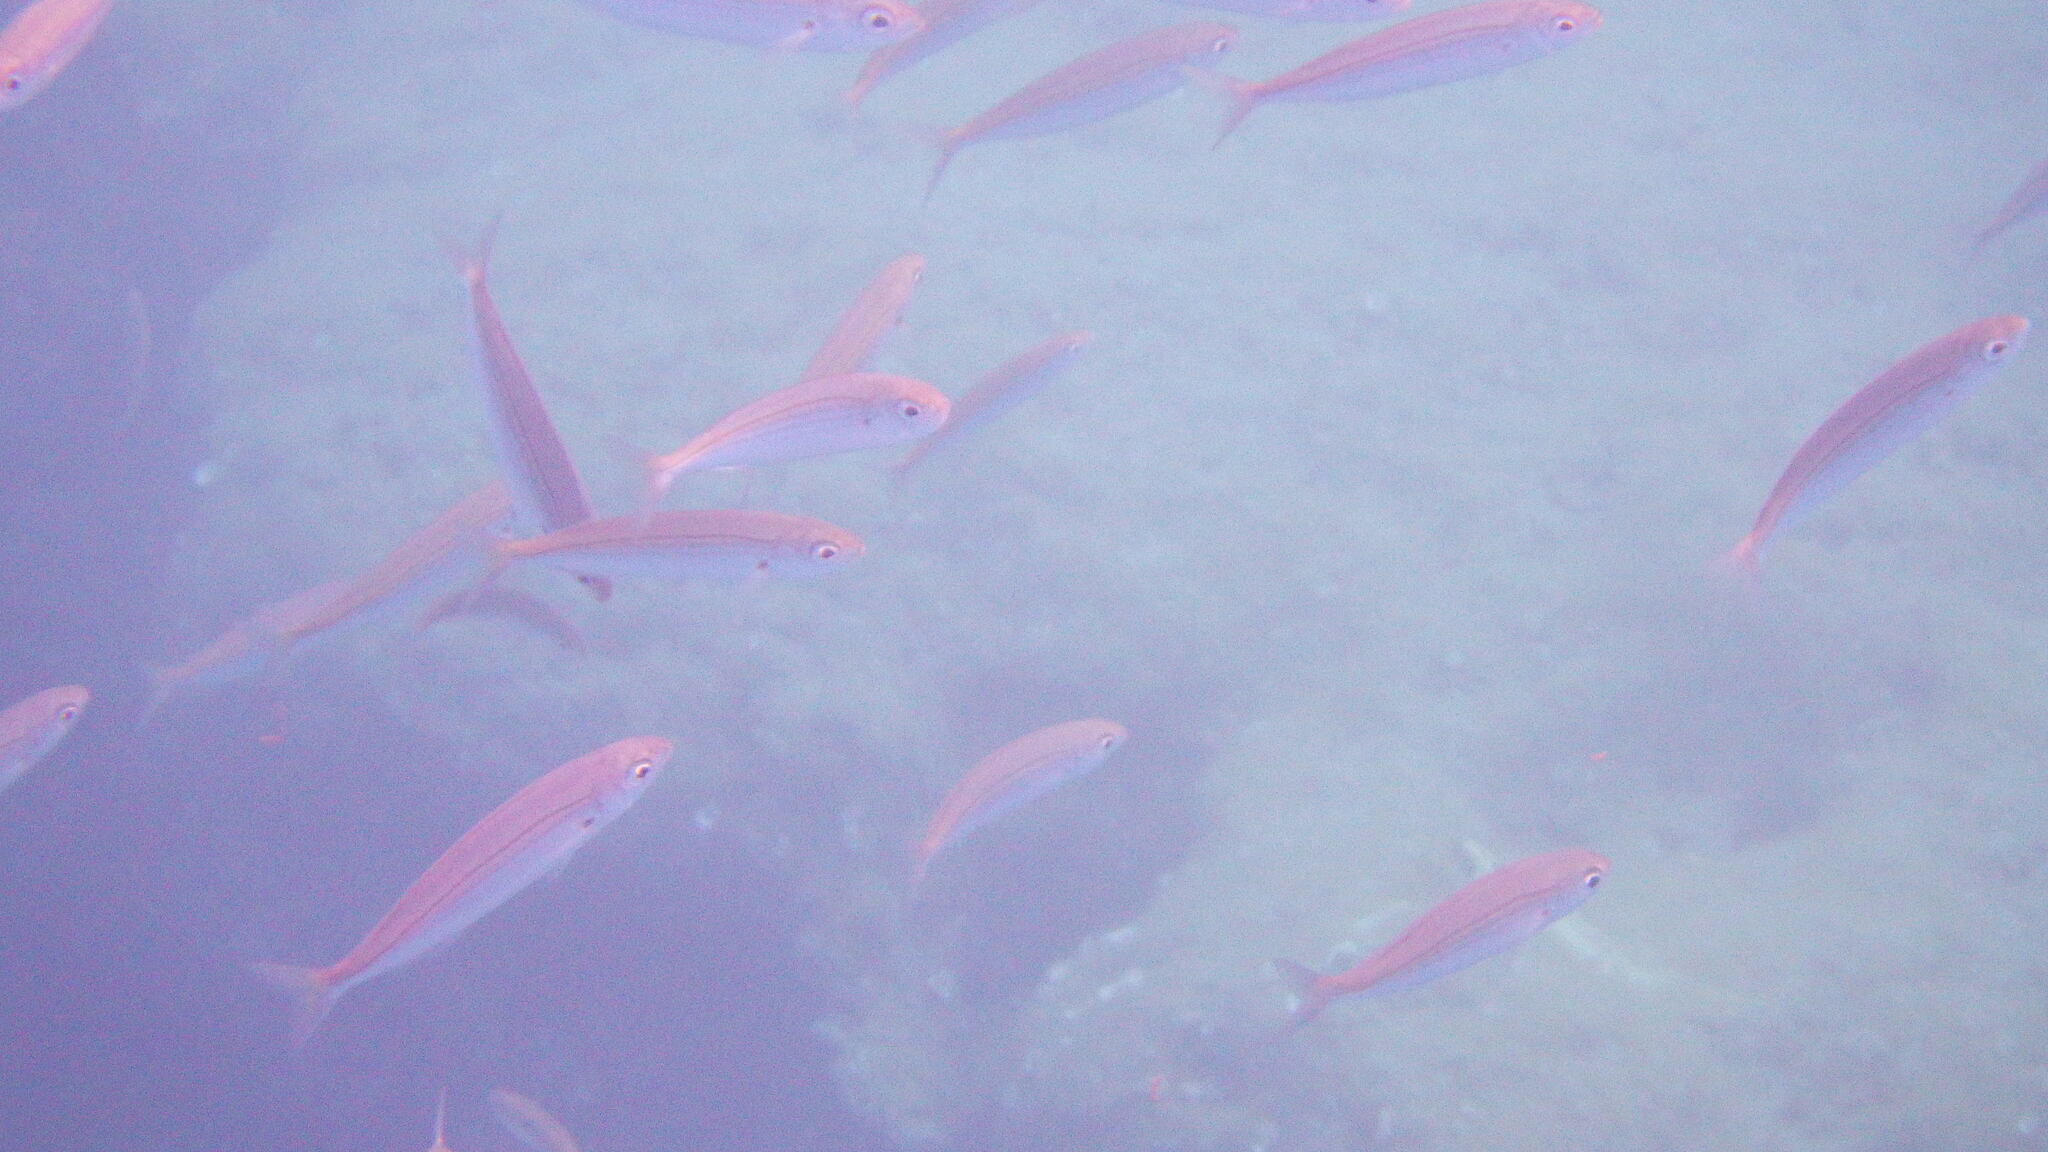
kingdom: Animalia
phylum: Chordata
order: Perciformes
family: Sparidae
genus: Boops
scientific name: Boops boops
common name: Bogue
